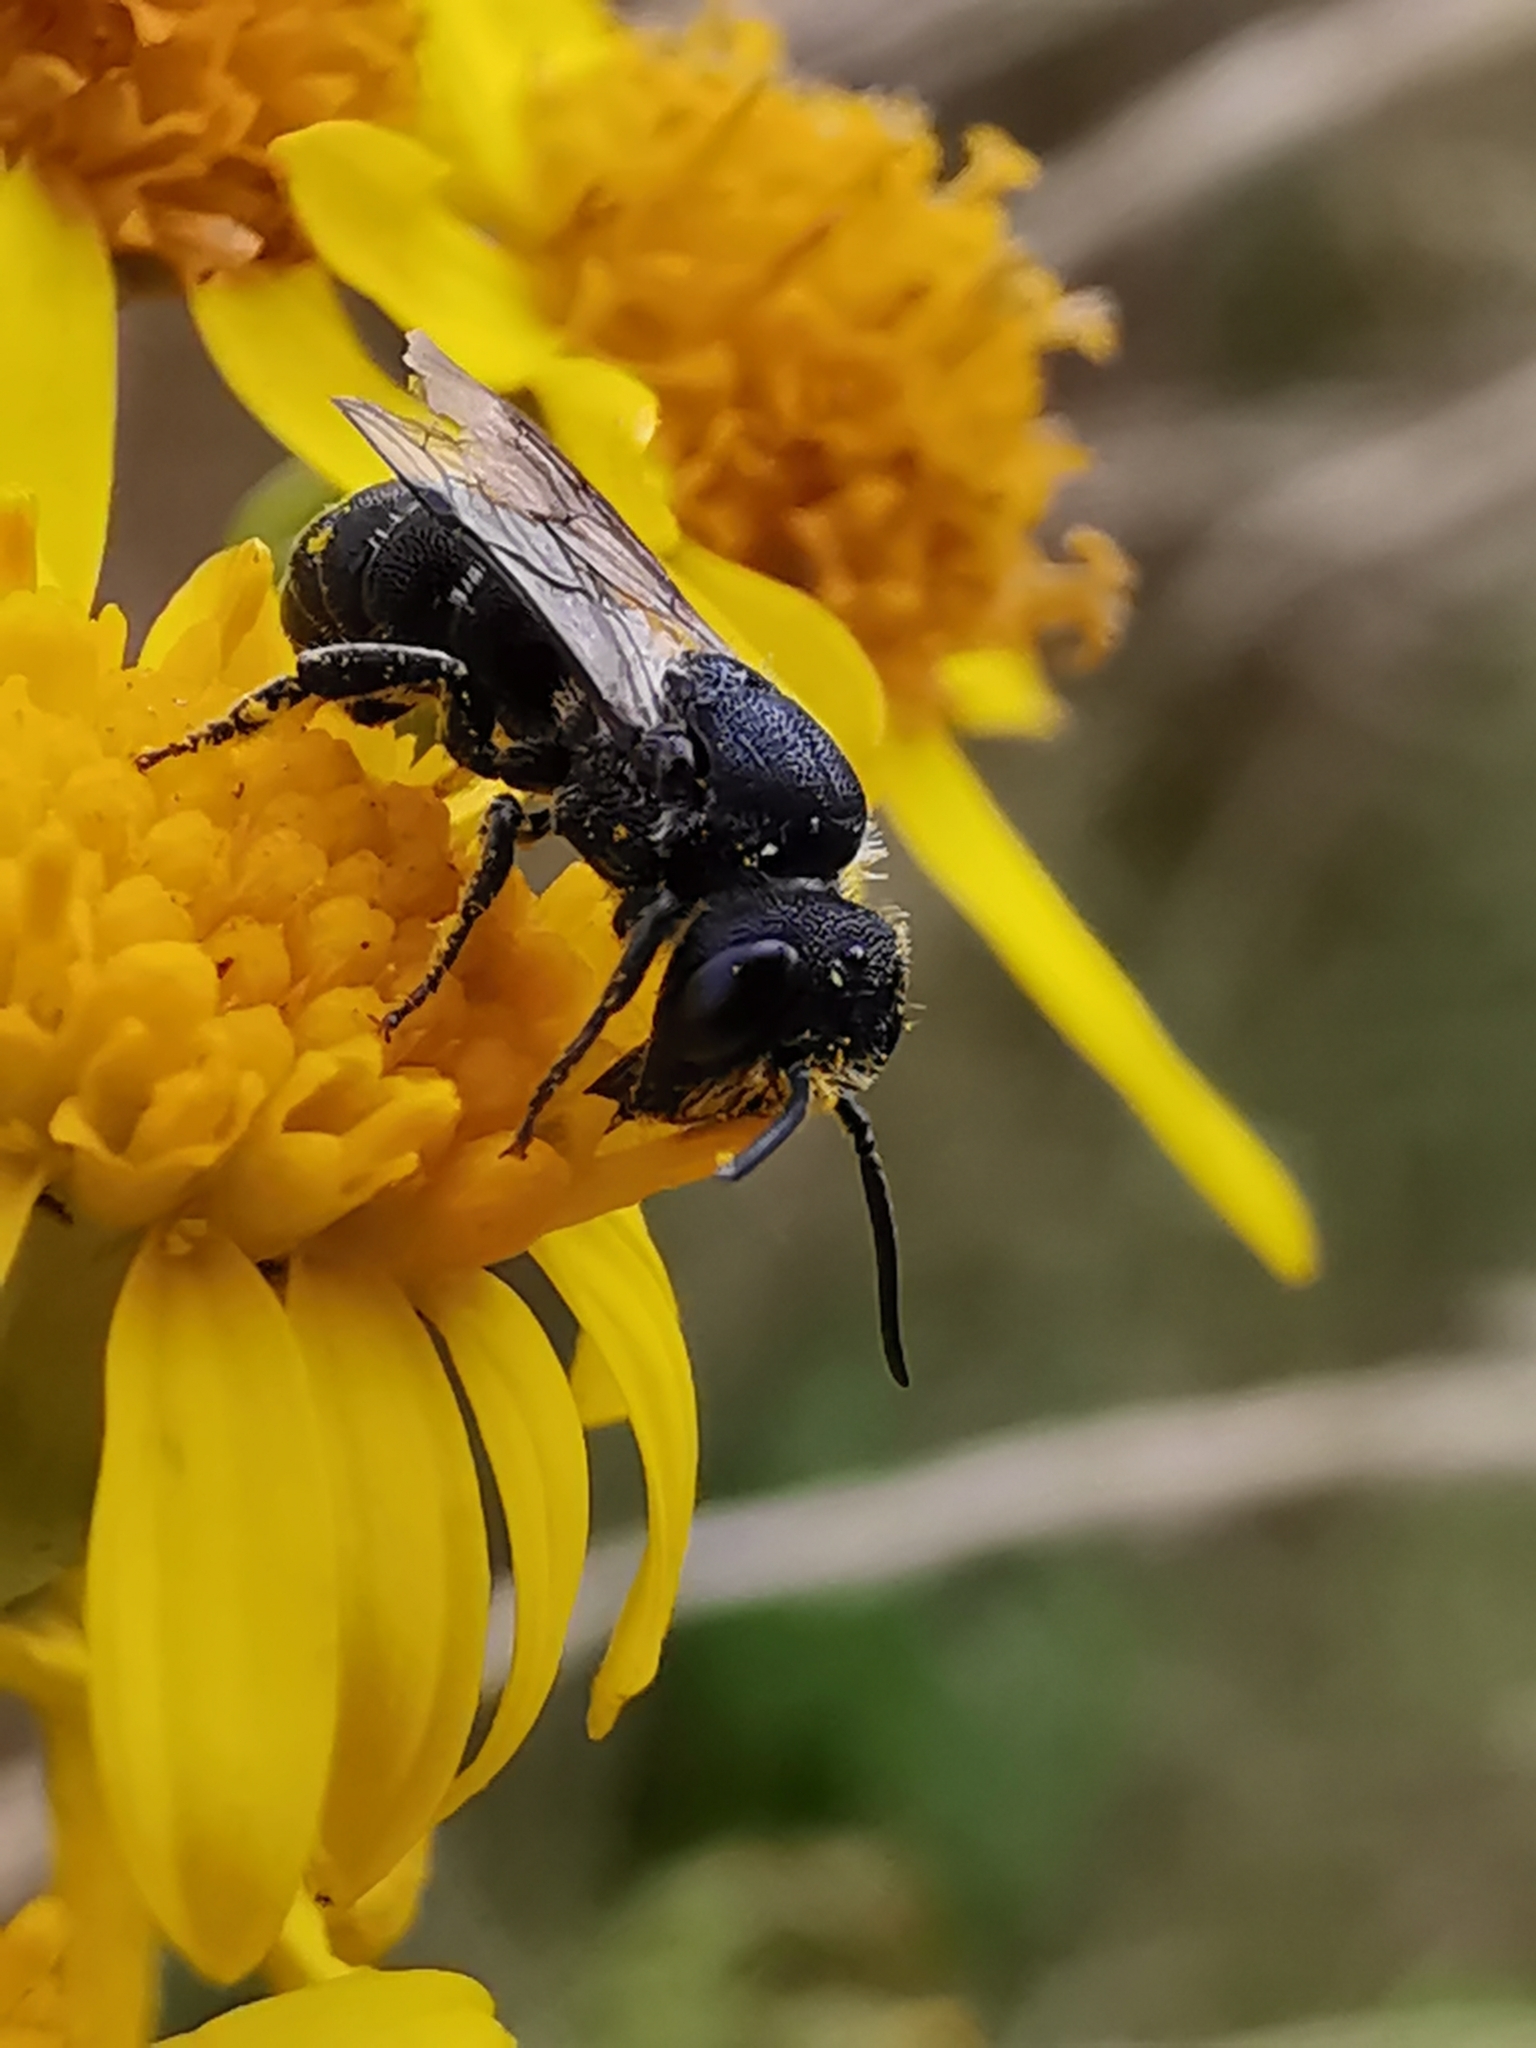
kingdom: Animalia
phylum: Arthropoda
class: Insecta
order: Hymenoptera
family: Megachilidae
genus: Heriades
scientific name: Heriades truncorum
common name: Ridge-saddled carpenter bee
